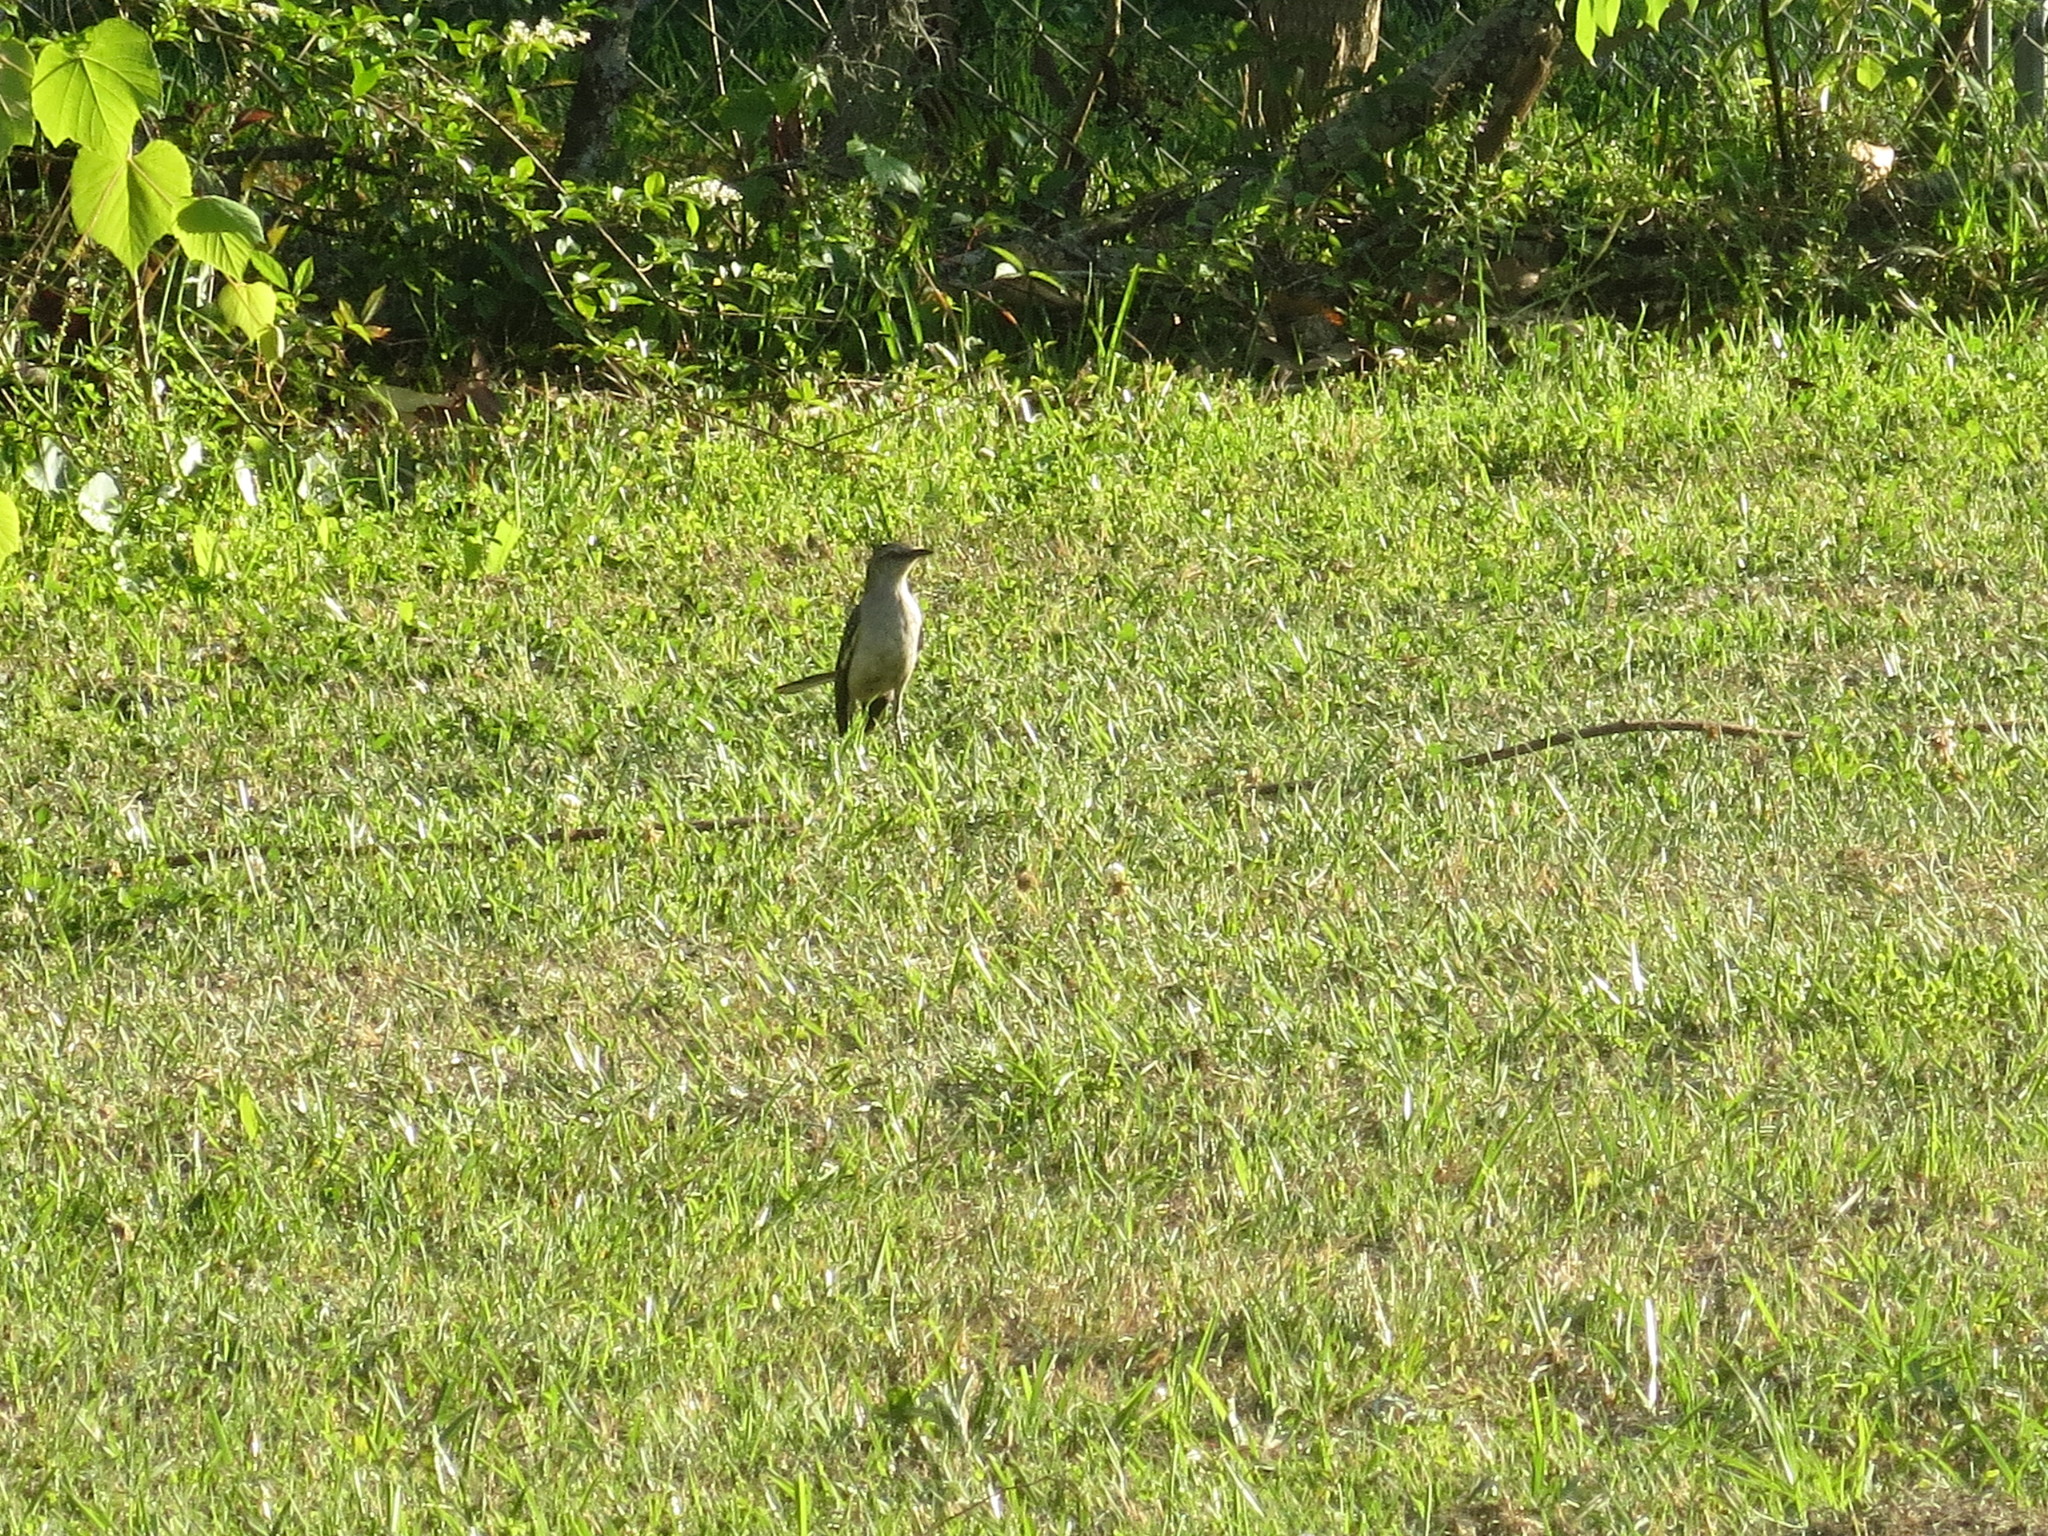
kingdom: Animalia
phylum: Chordata
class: Aves
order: Passeriformes
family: Mimidae
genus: Mimus
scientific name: Mimus polyglottos
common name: Northern mockingbird
